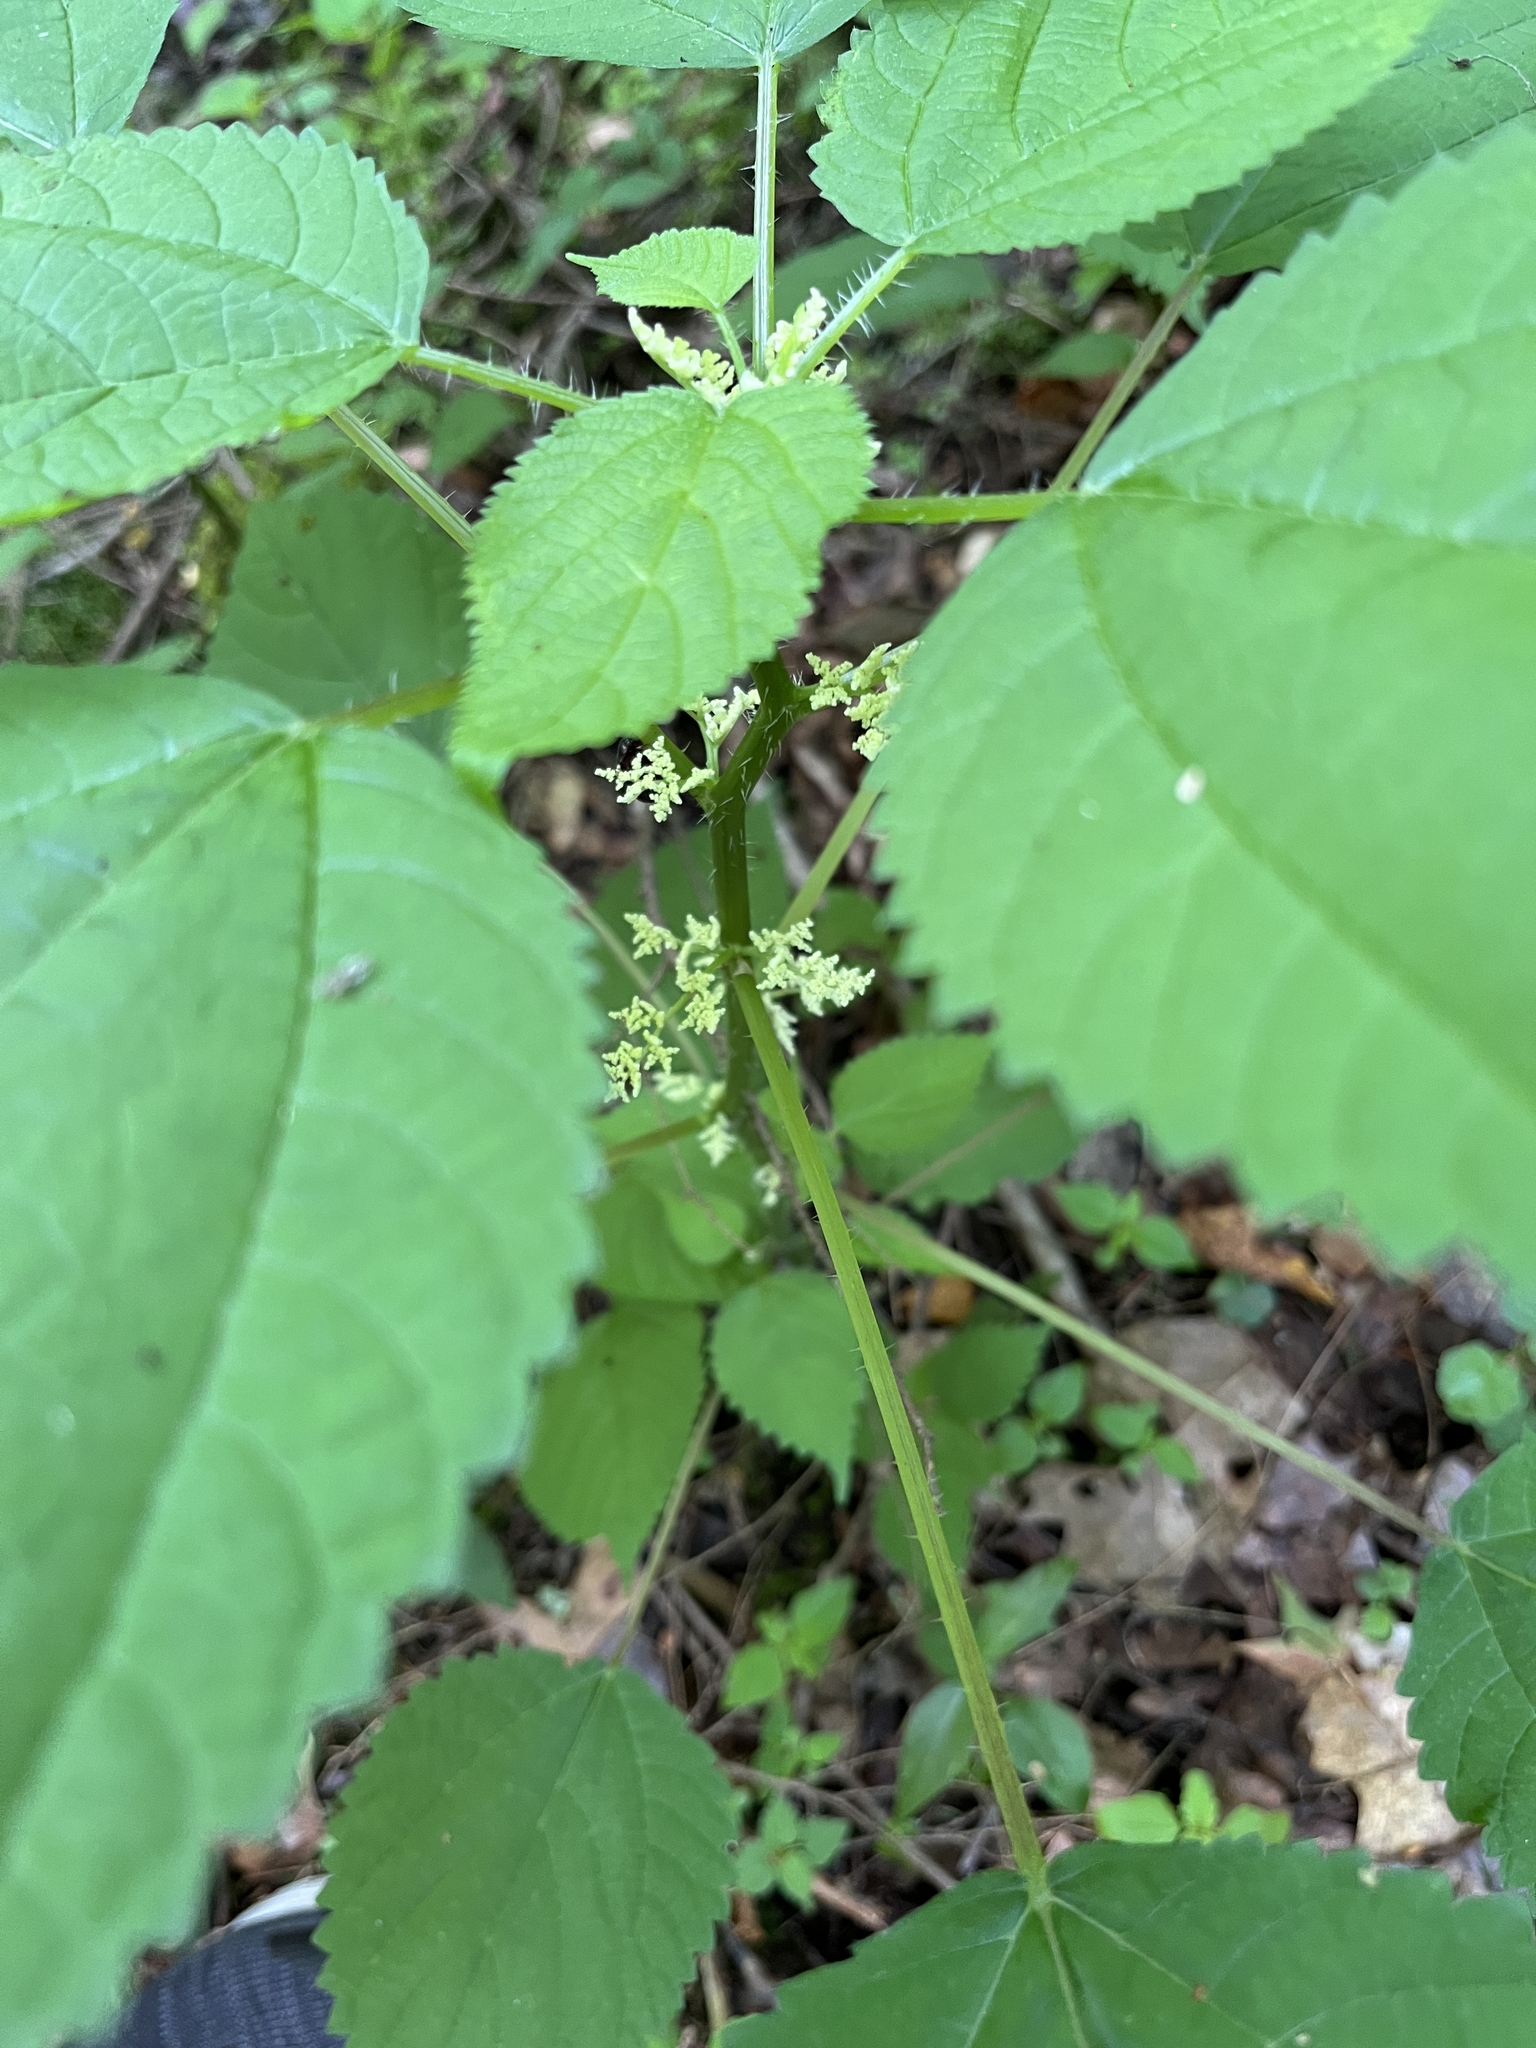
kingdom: Plantae
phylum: Tracheophyta
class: Magnoliopsida
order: Rosales
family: Urticaceae
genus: Laportea
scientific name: Laportea canadensis
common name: Canada nettle
